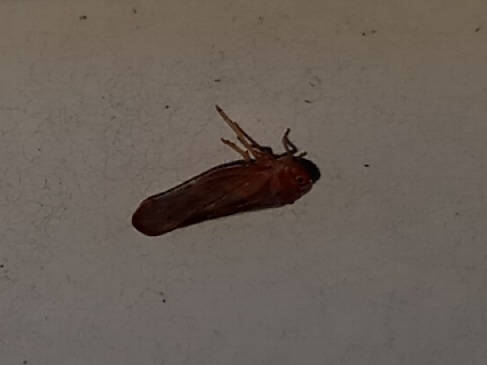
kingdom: Animalia
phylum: Arthropoda
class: Insecta
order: Hemiptera
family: Derbidae
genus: Omolicna
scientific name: Omolicna mcateei
